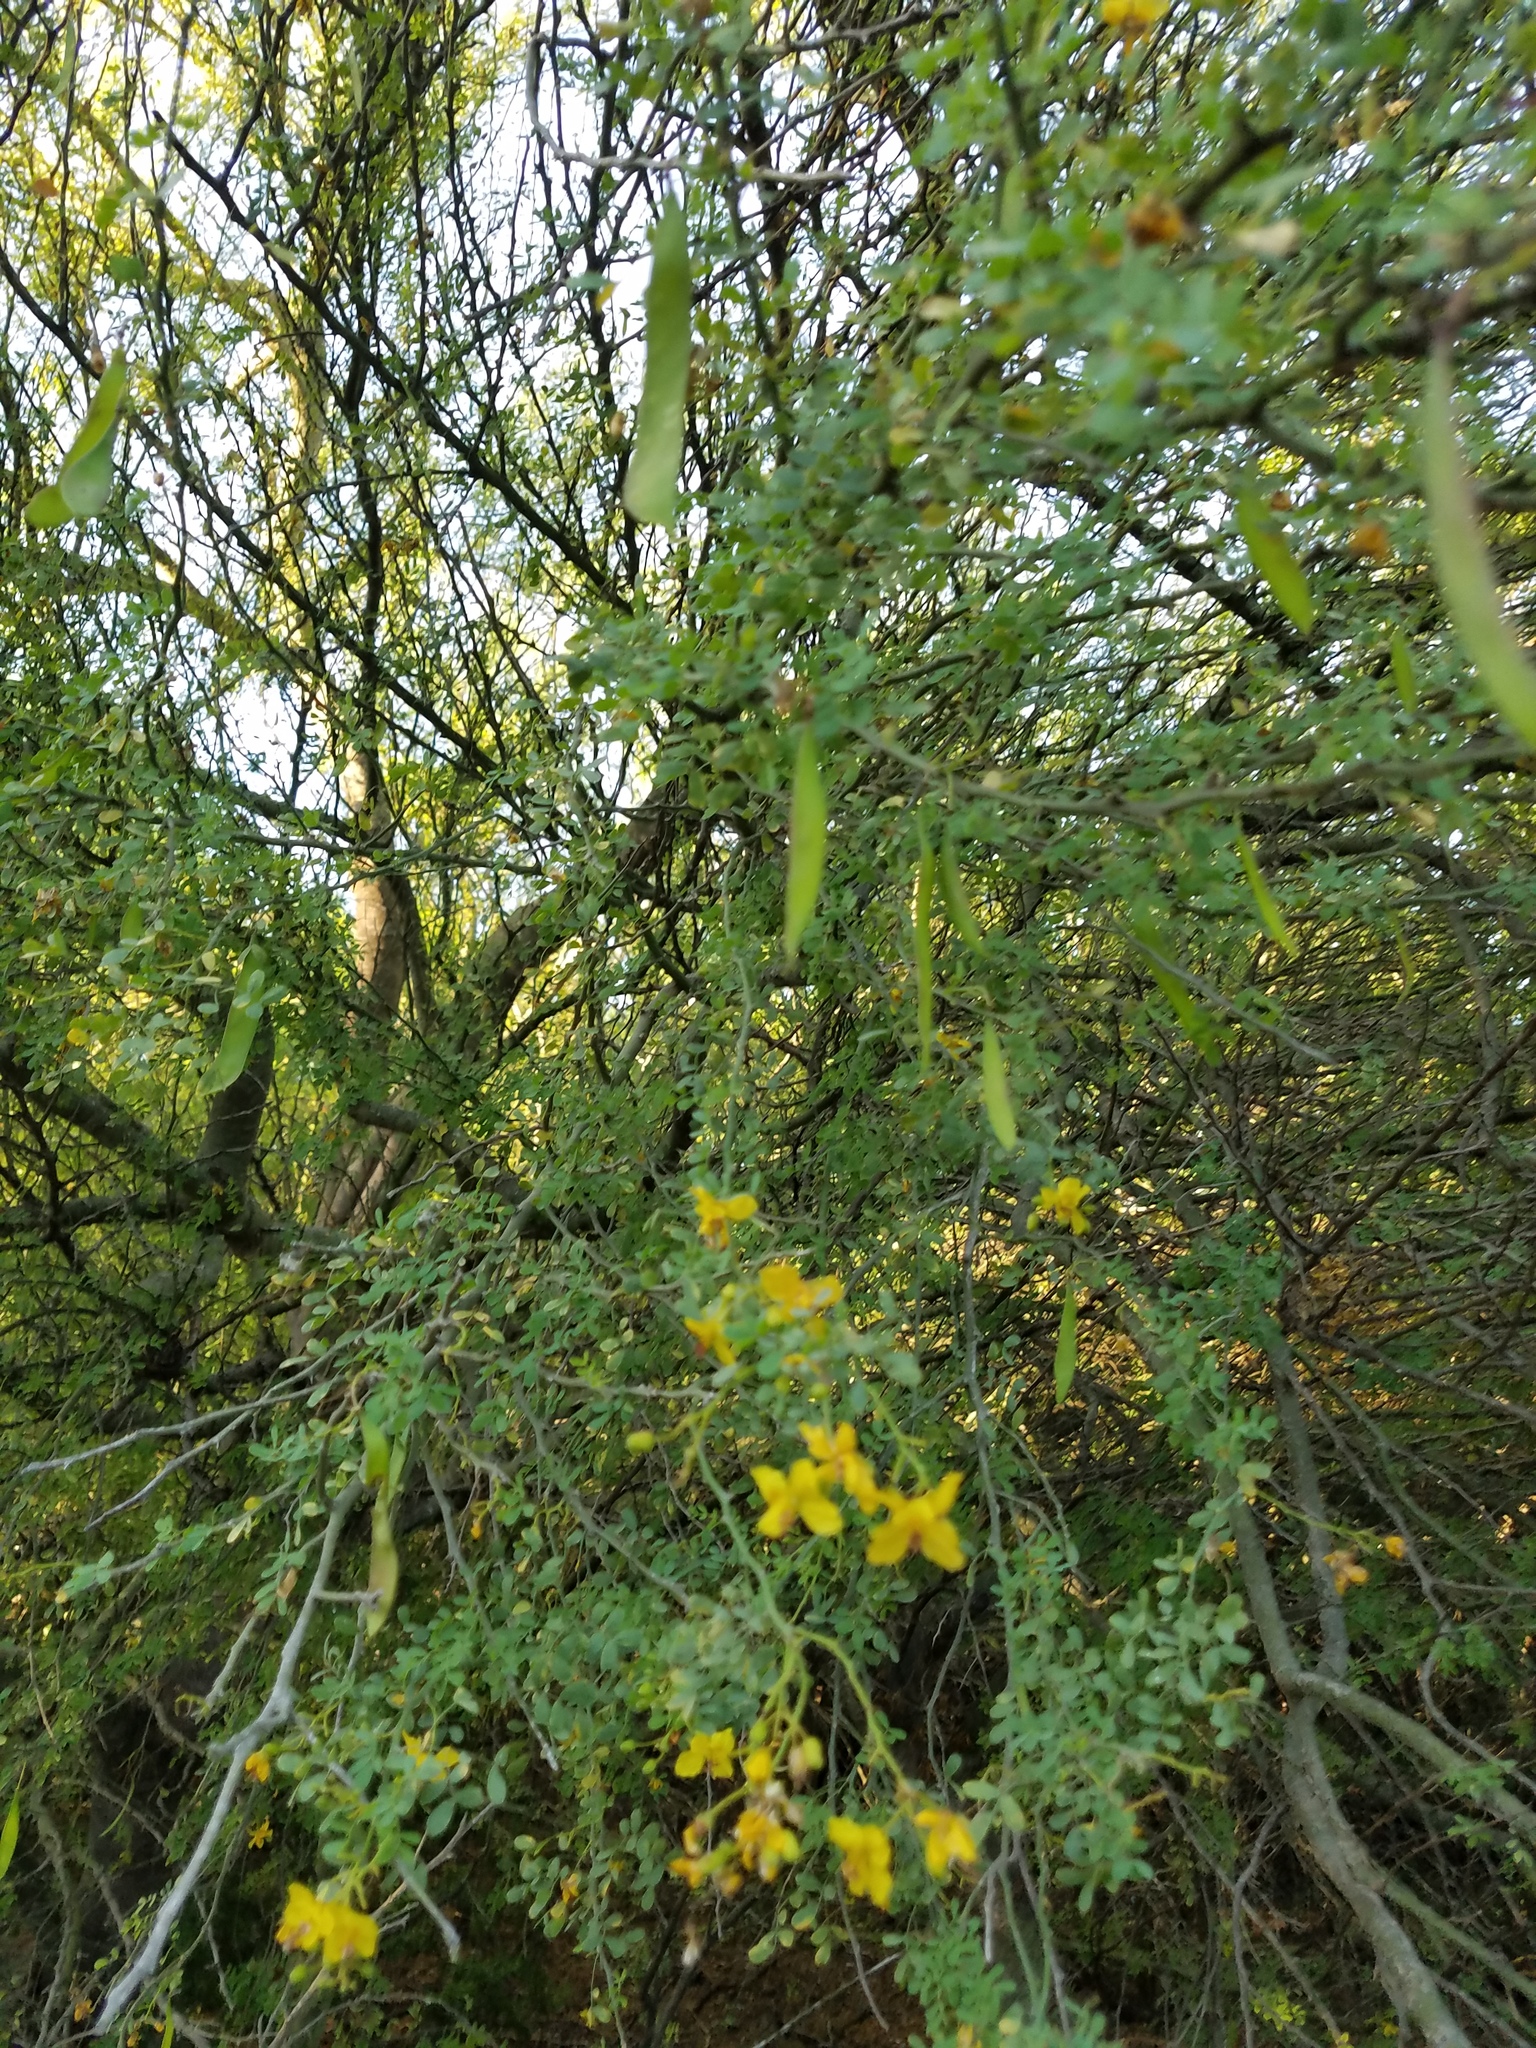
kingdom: Plantae
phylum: Tracheophyta
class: Magnoliopsida
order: Fabales
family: Fabaceae
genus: Parkinsonia
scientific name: Parkinsonia texana
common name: Texas paloverde
